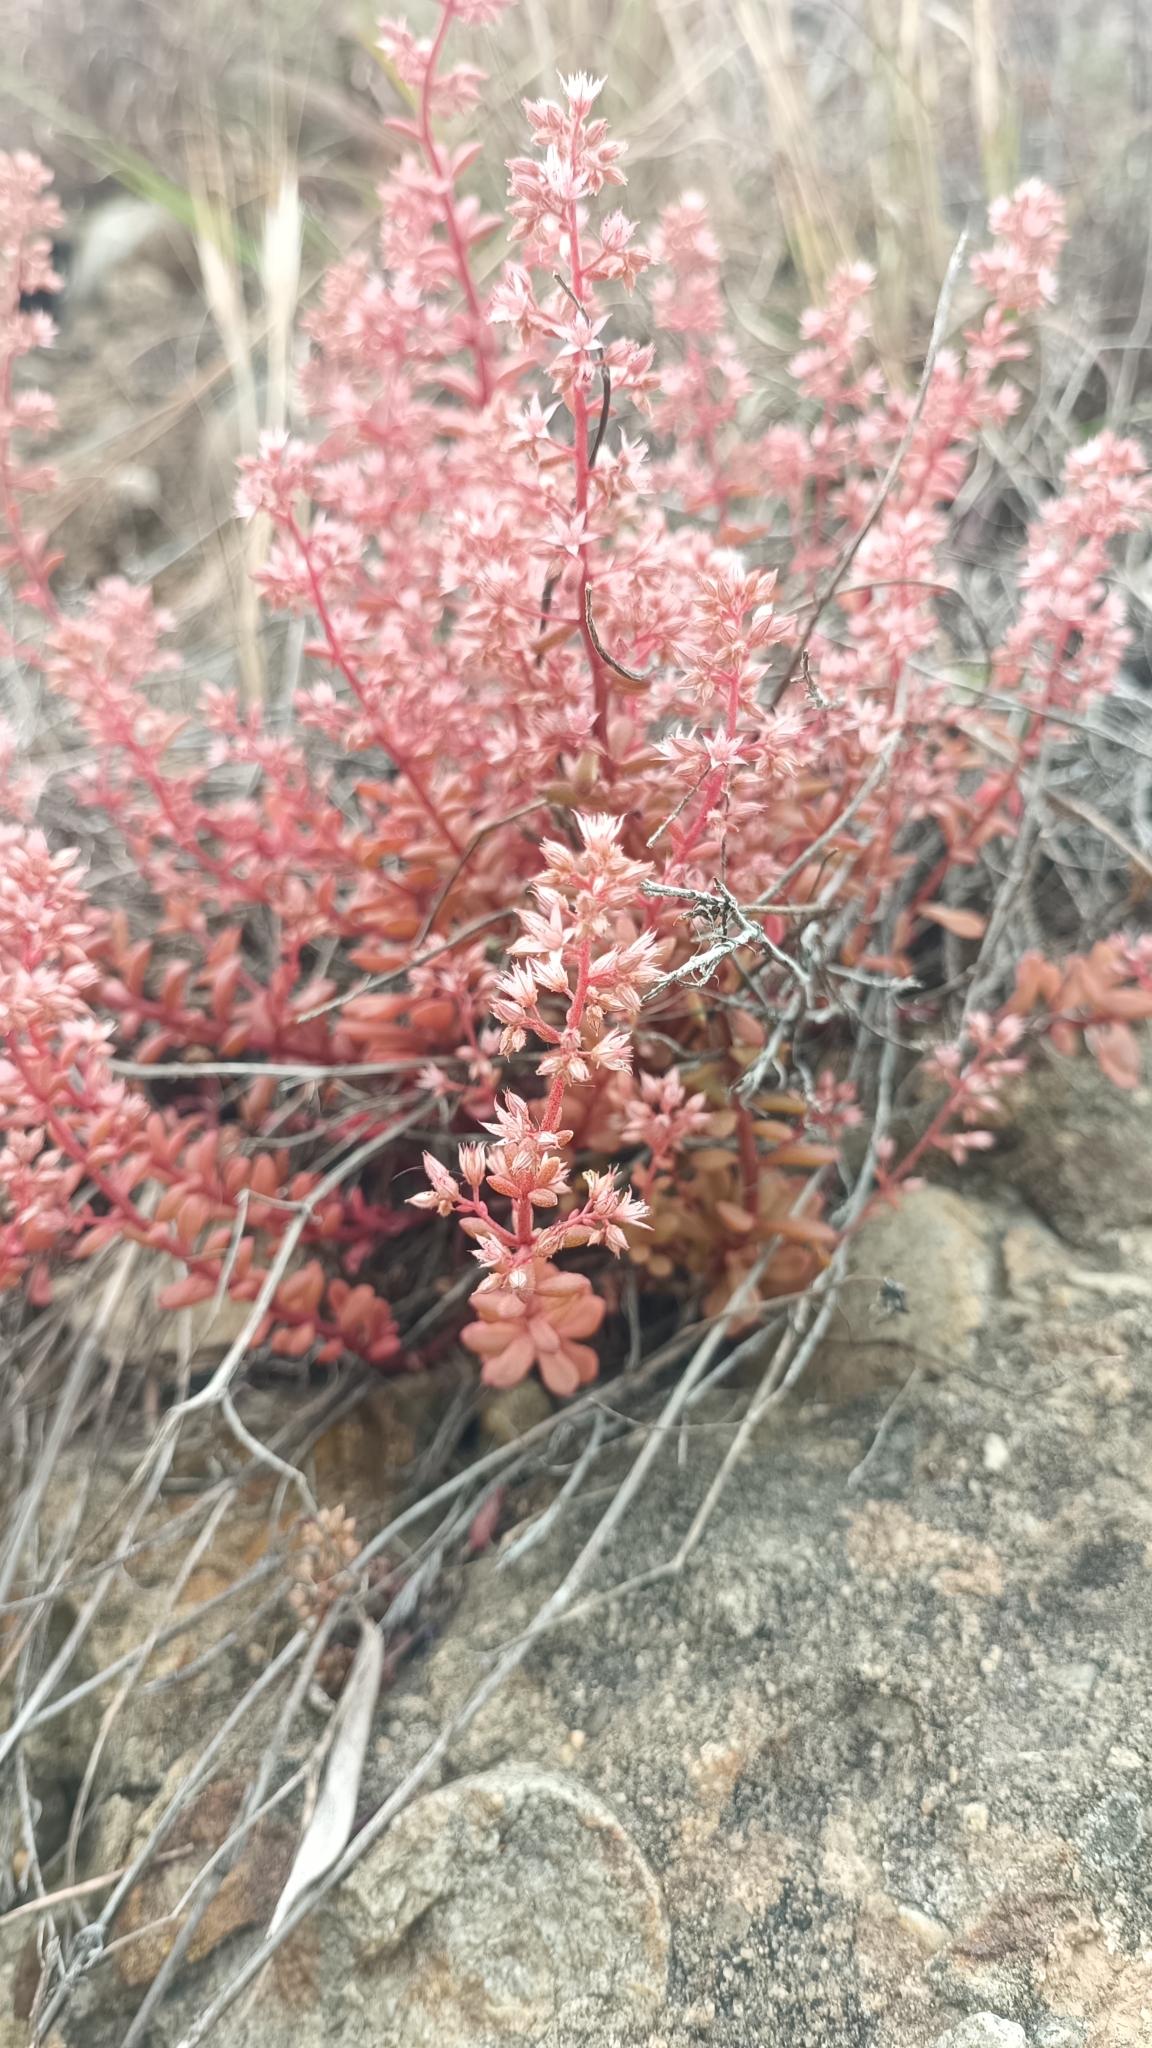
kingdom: Plantae
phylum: Tracheophyta
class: Magnoliopsida
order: Saxifragales
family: Crassulaceae
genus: Sedum
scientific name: Sedum cepaea
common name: Pink stonecrop
